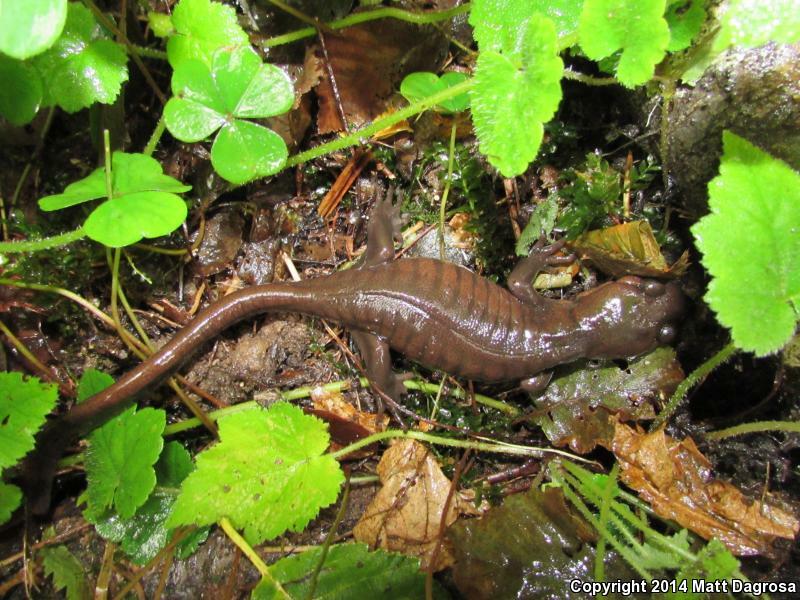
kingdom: Animalia
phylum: Chordata
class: Amphibia
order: Caudata
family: Ambystomatidae
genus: Ambystoma
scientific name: Ambystoma gracile
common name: Northwestern salamander
